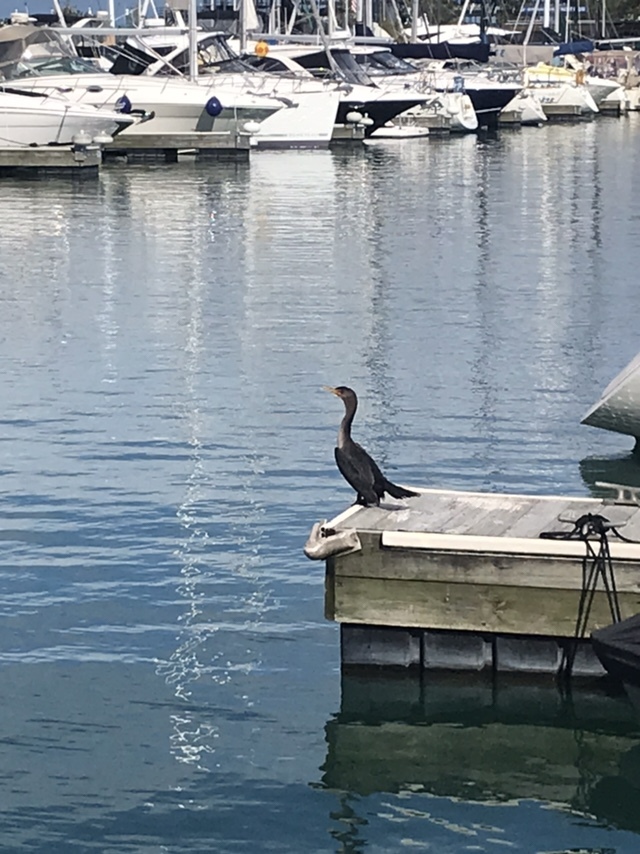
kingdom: Animalia
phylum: Chordata
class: Aves
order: Suliformes
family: Phalacrocoracidae
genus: Phalacrocorax
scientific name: Phalacrocorax auritus
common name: Double-crested cormorant
